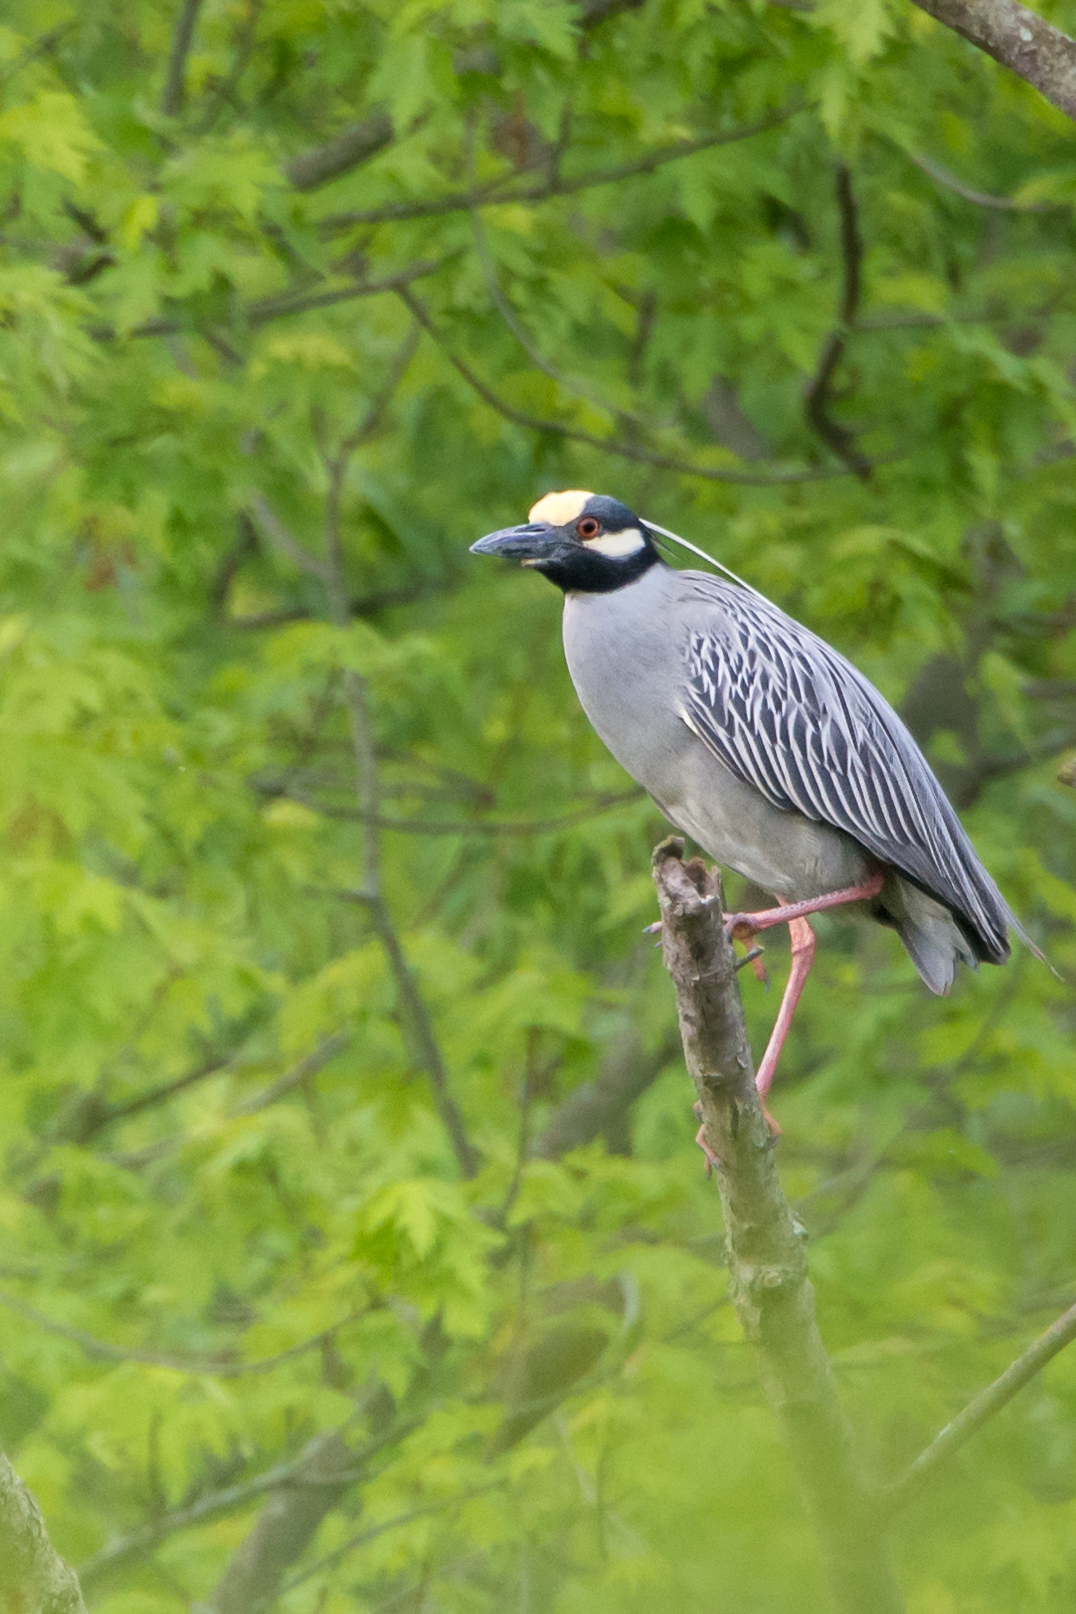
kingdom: Animalia
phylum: Chordata
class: Aves
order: Pelecaniformes
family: Ardeidae
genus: Nyctanassa
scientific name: Nyctanassa violacea
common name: Yellow-crowned night heron
